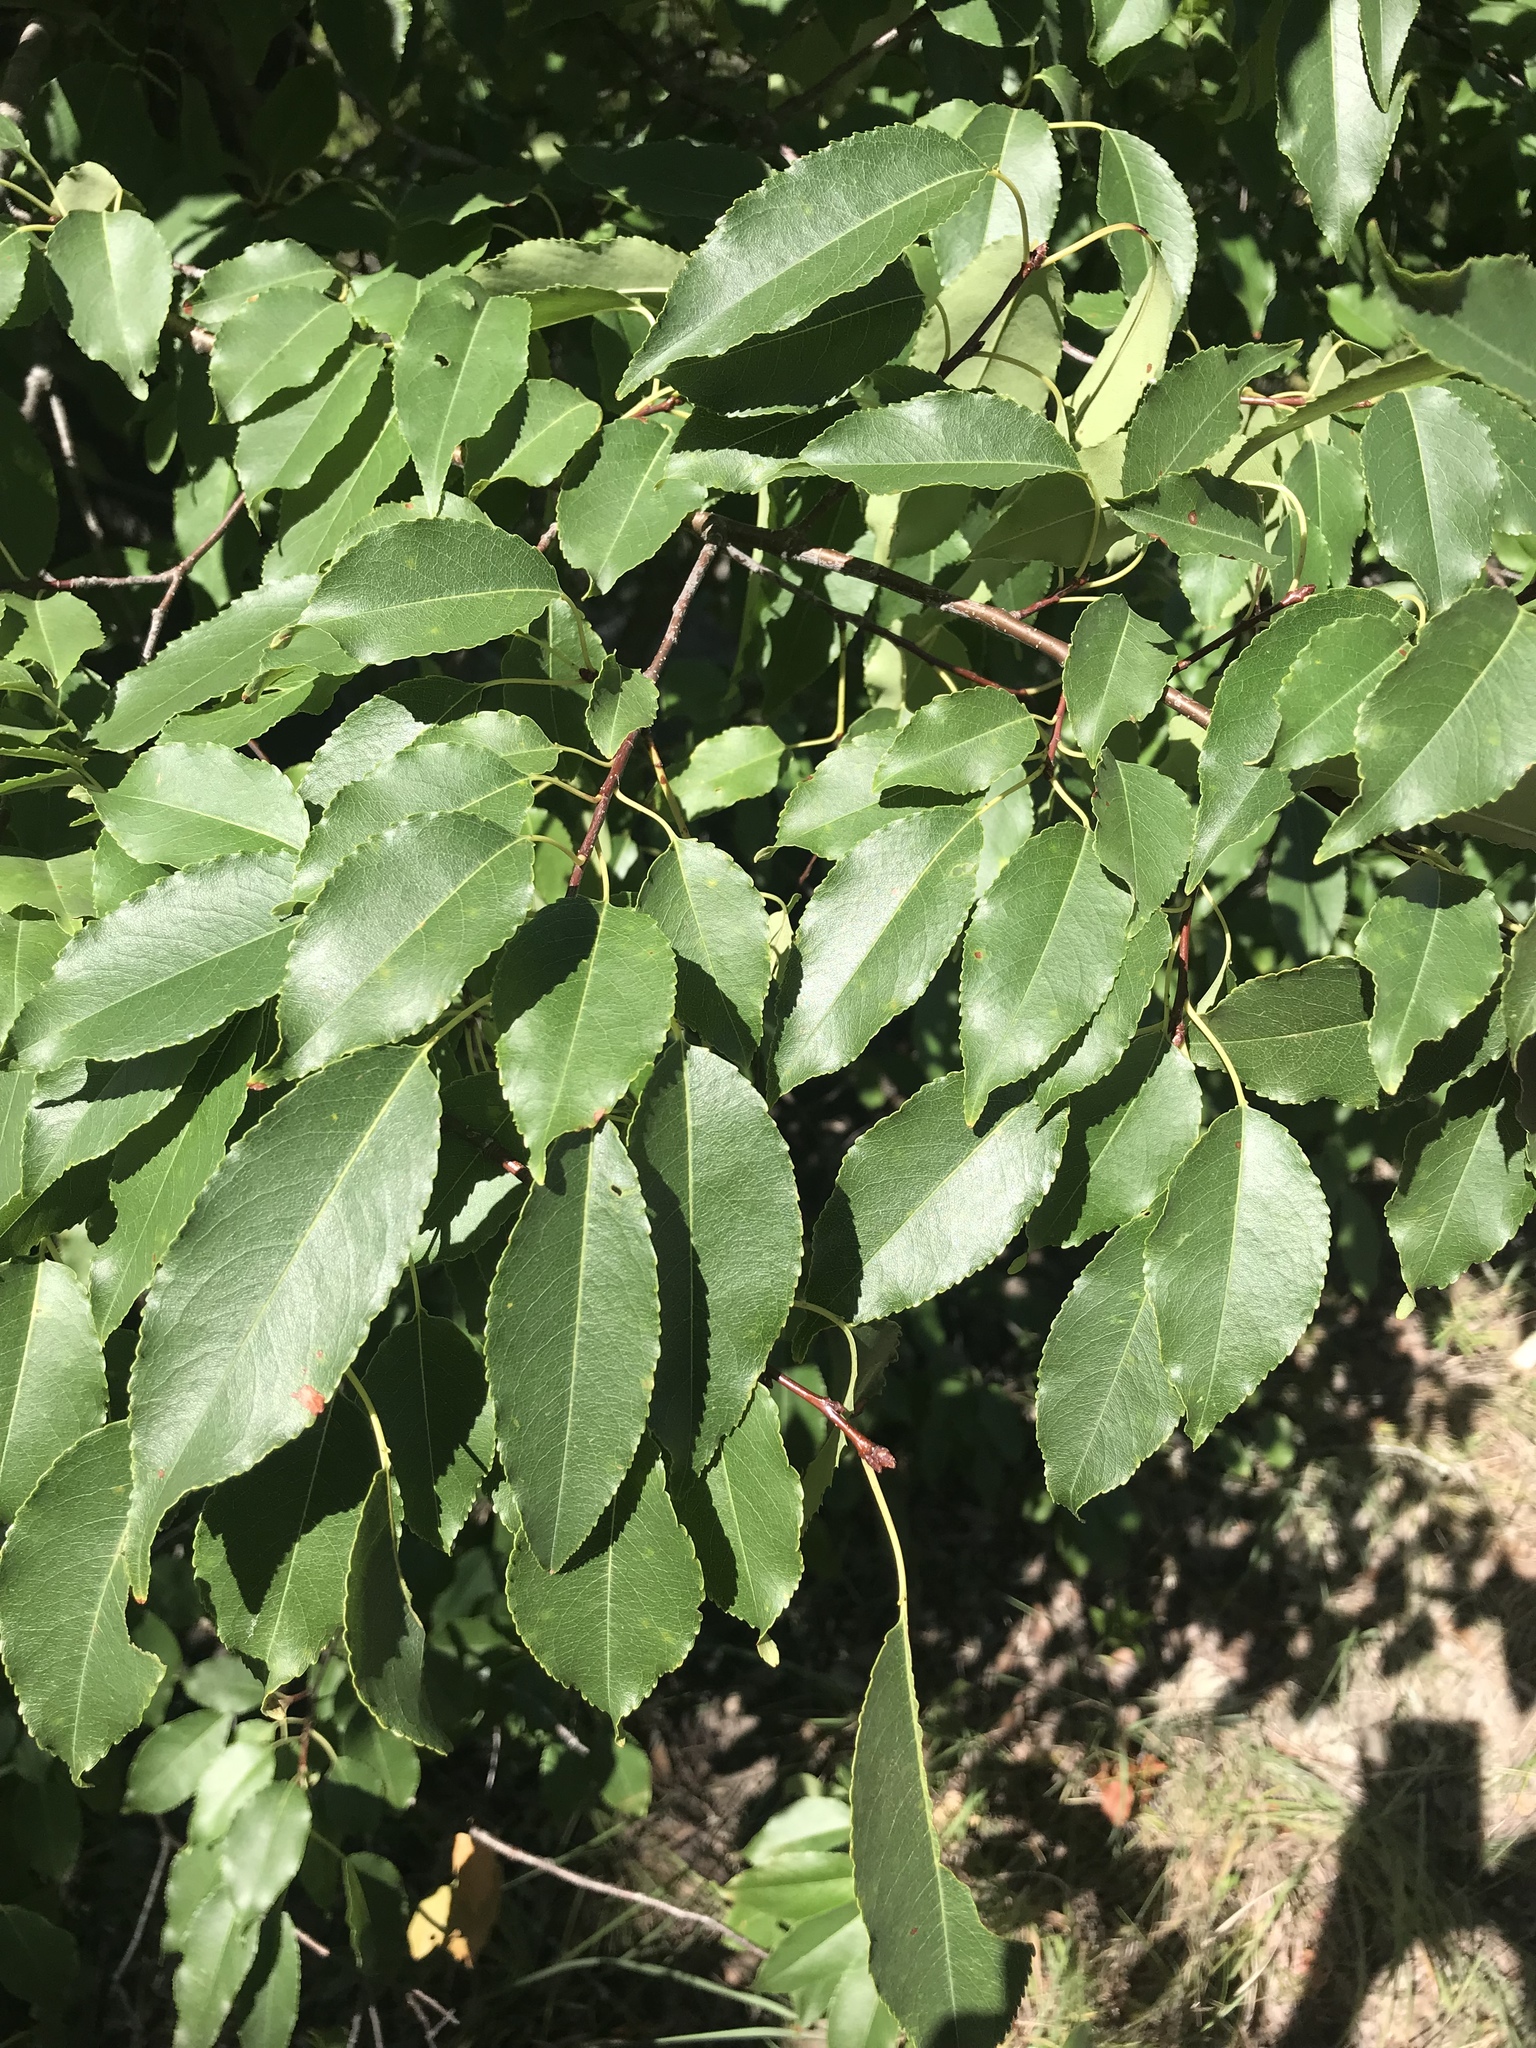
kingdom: Plantae
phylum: Tracheophyta
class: Magnoliopsida
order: Rosales
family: Rosaceae
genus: Prunus
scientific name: Prunus serotina
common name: Black cherry
